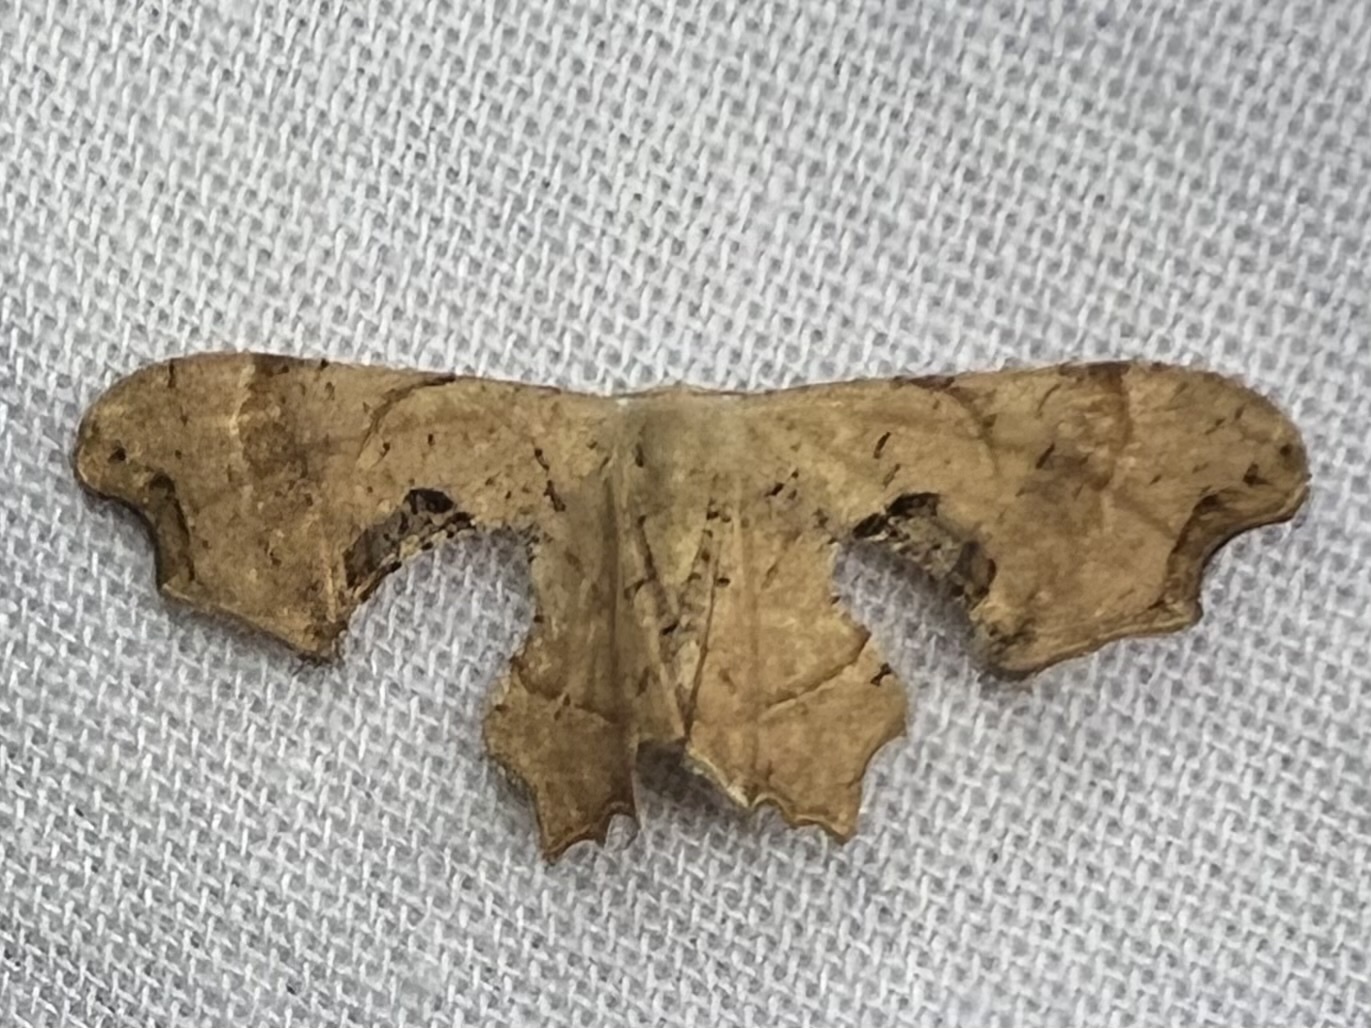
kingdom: Animalia
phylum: Arthropoda
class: Insecta
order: Lepidoptera
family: Uraniidae
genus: Epiplema
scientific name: Epiplema Calledapteryx dryopterata
